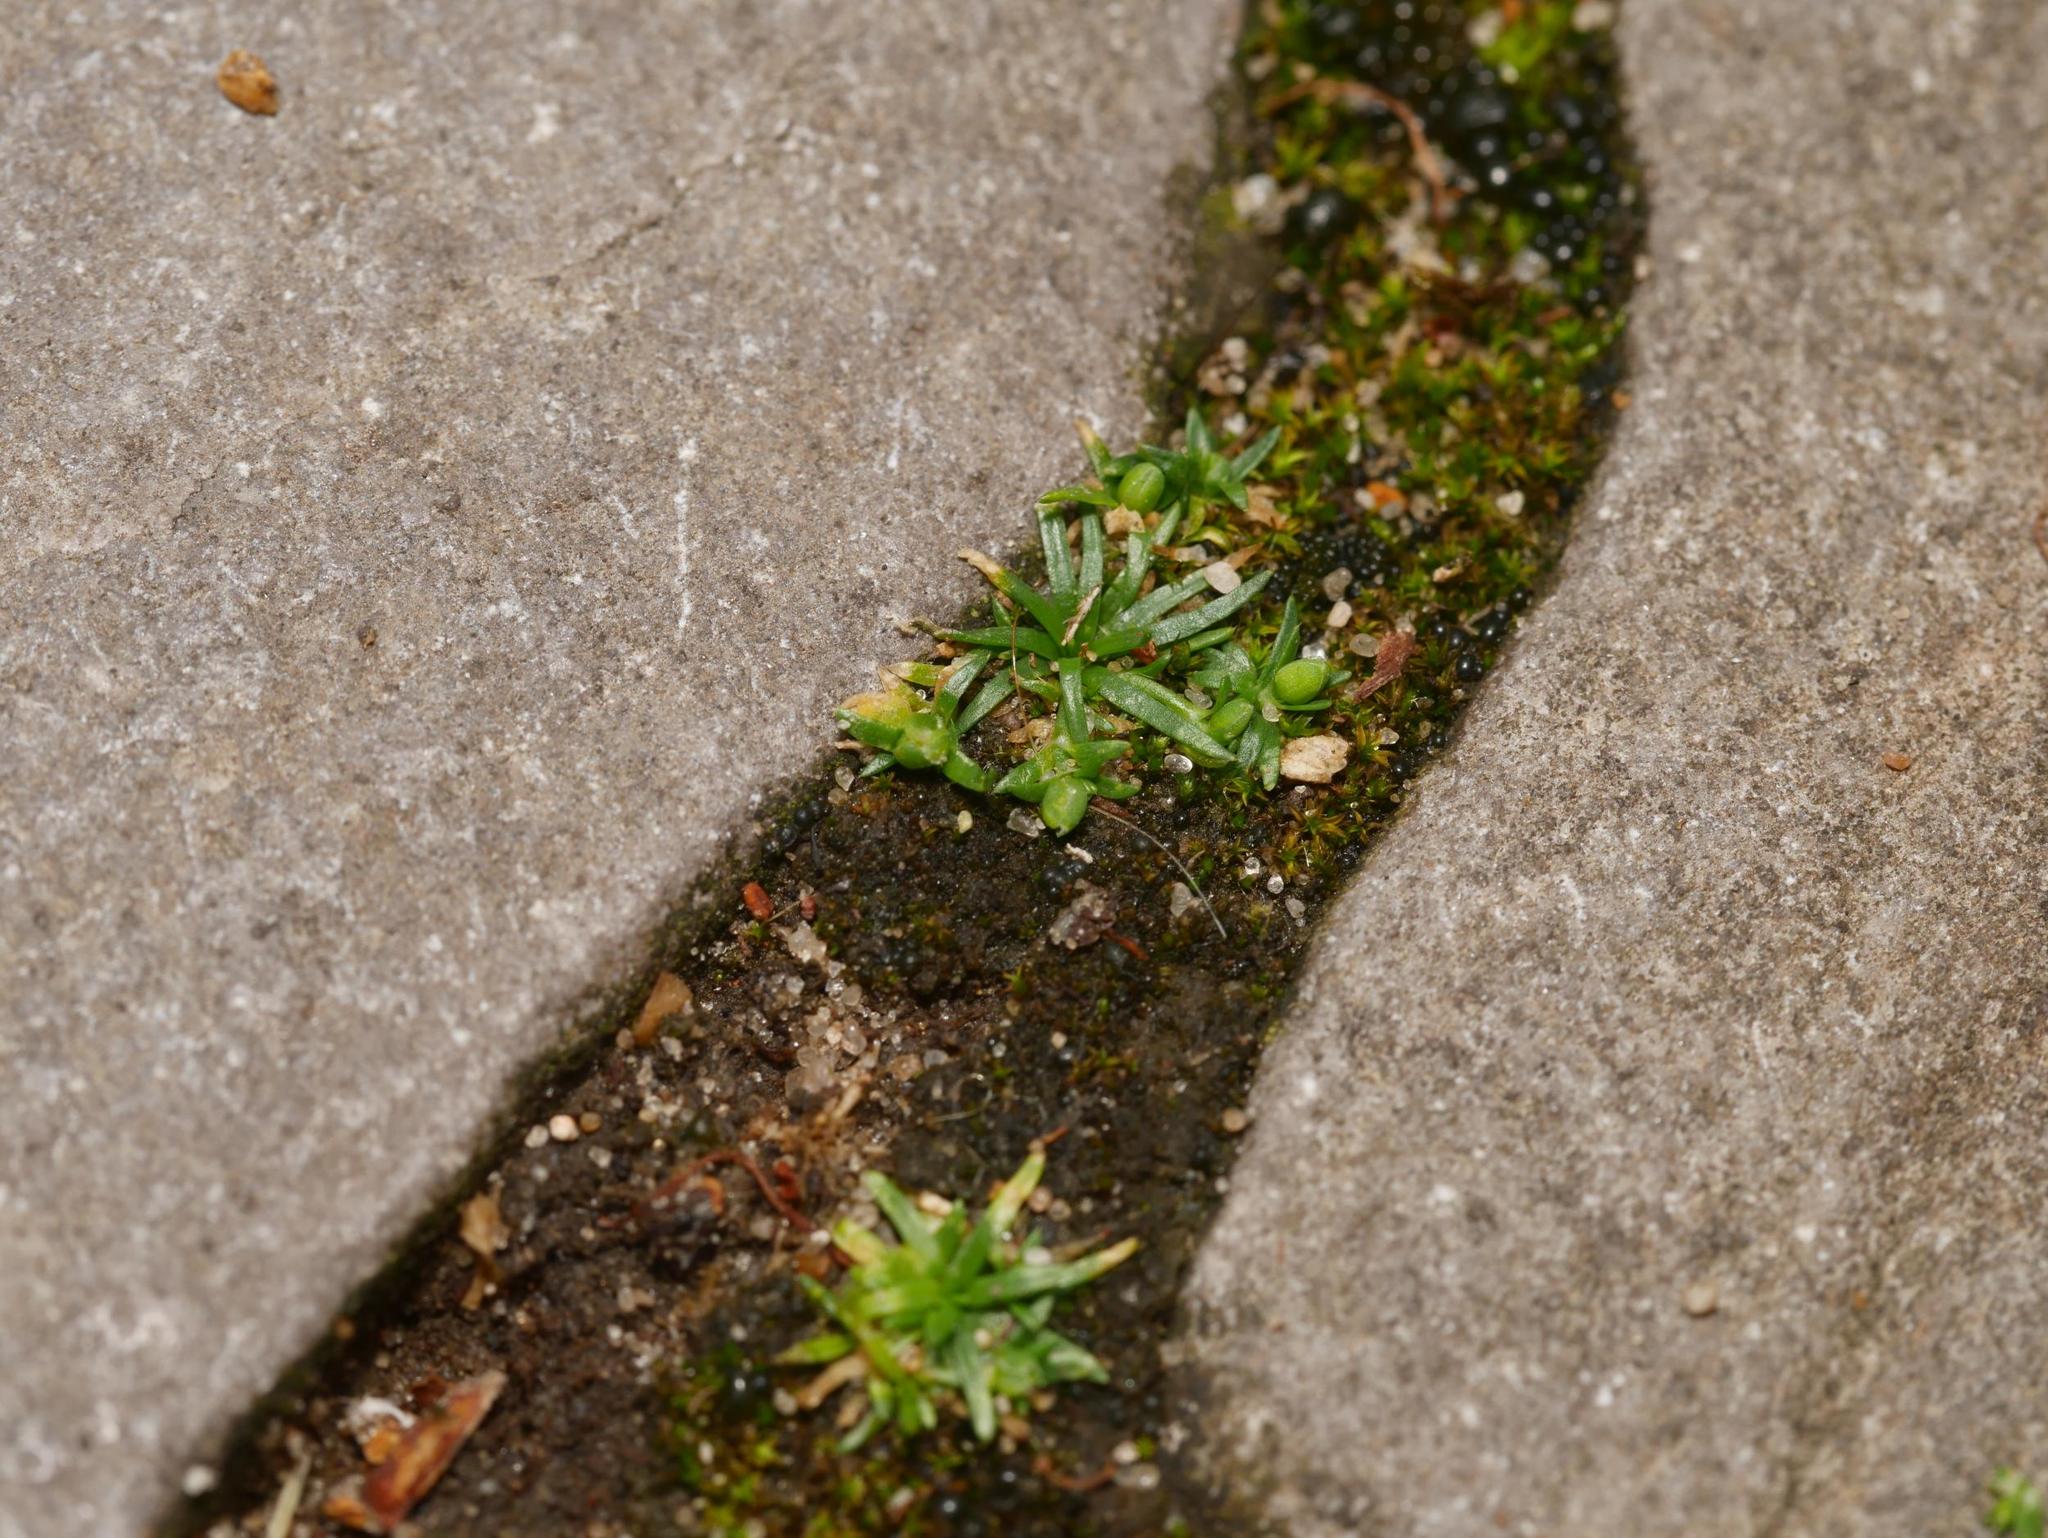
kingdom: Plantae
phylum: Tracheophyta
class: Magnoliopsida
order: Caryophyllales
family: Caryophyllaceae
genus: Sagina
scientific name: Sagina procumbens
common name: Procumbent pearlwort
